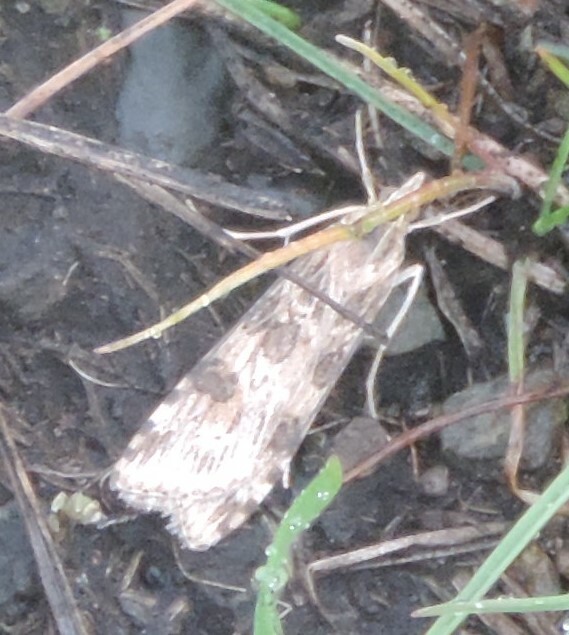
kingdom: Animalia
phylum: Arthropoda
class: Insecta
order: Lepidoptera
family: Crambidae
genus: Nomophila
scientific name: Nomophila nearctica
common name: American rush veneer
